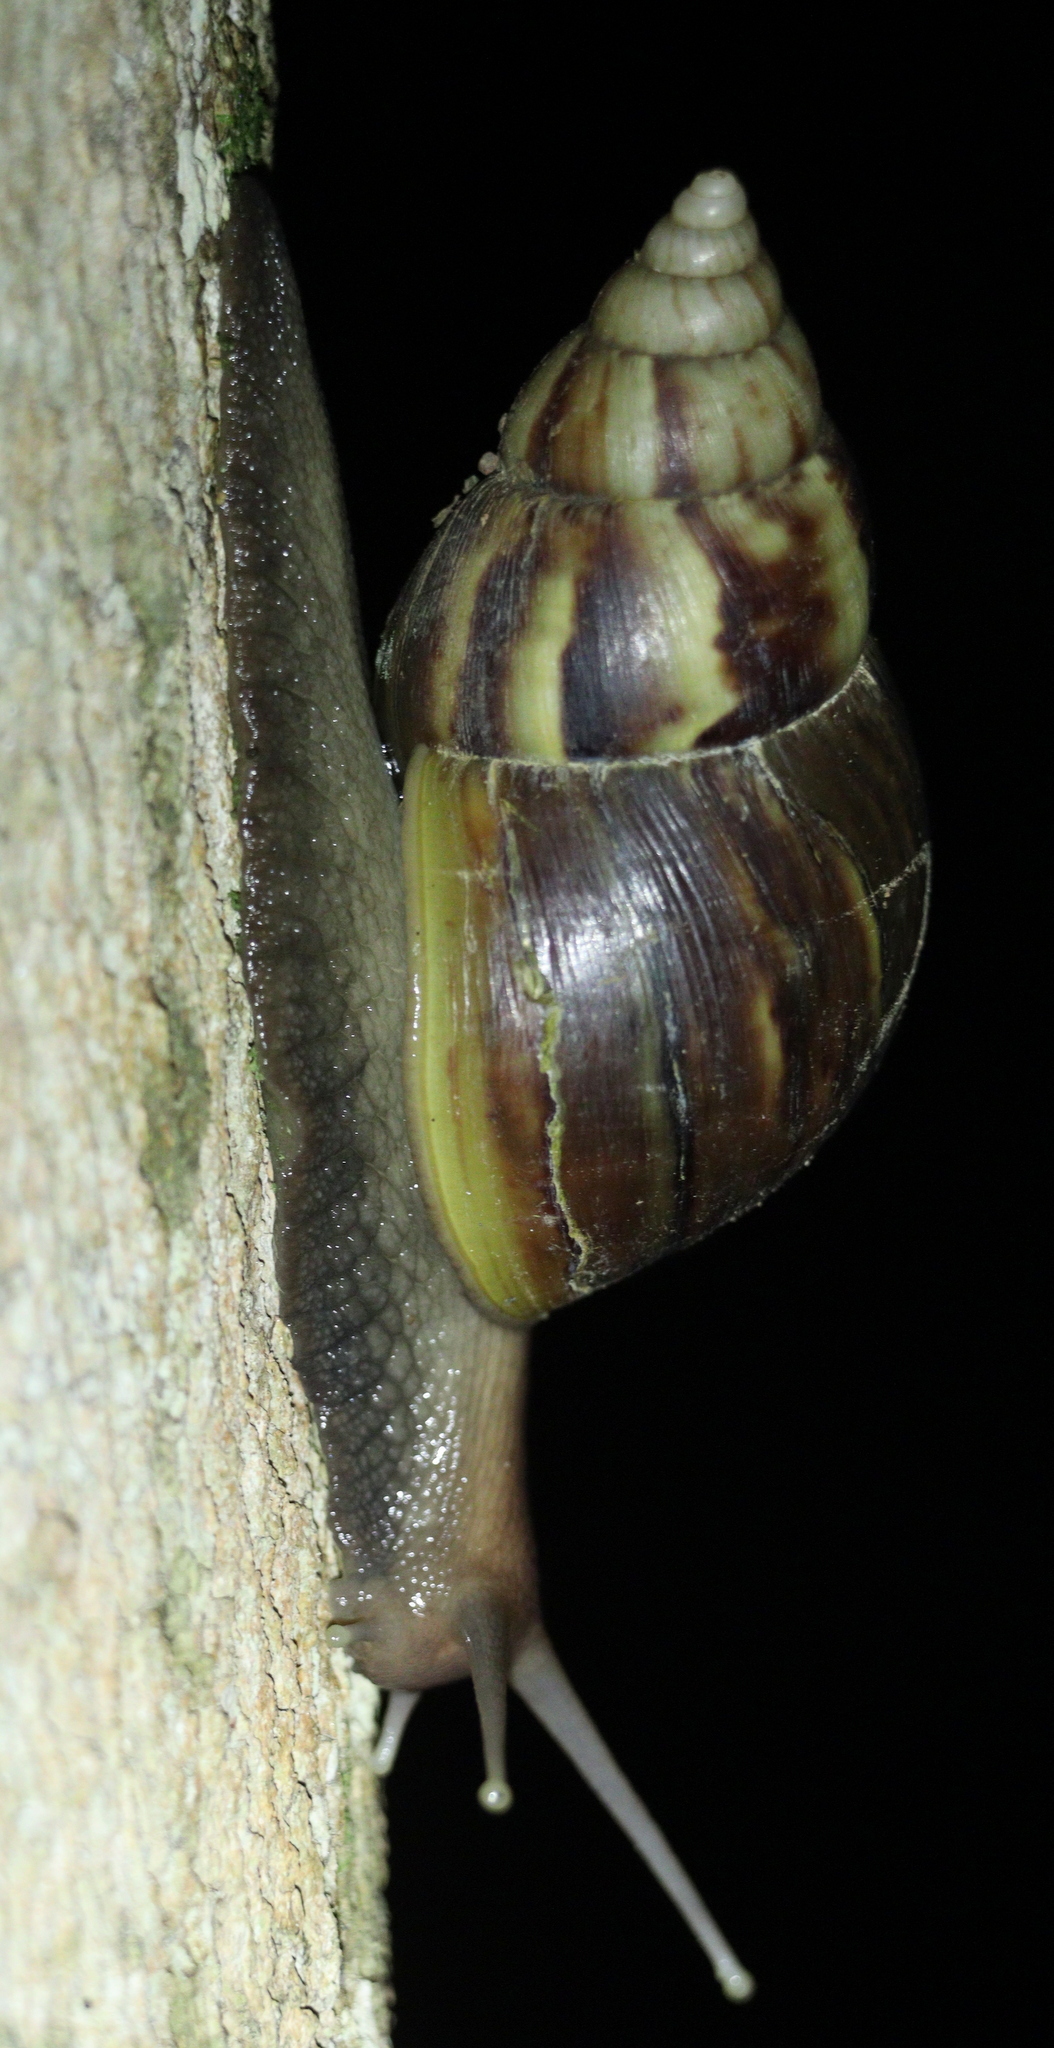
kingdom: Animalia
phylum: Mollusca
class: Gastropoda
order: Stylommatophora
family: Achatinidae
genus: Lissachatina
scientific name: Lissachatina fulica
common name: Giant african snail
